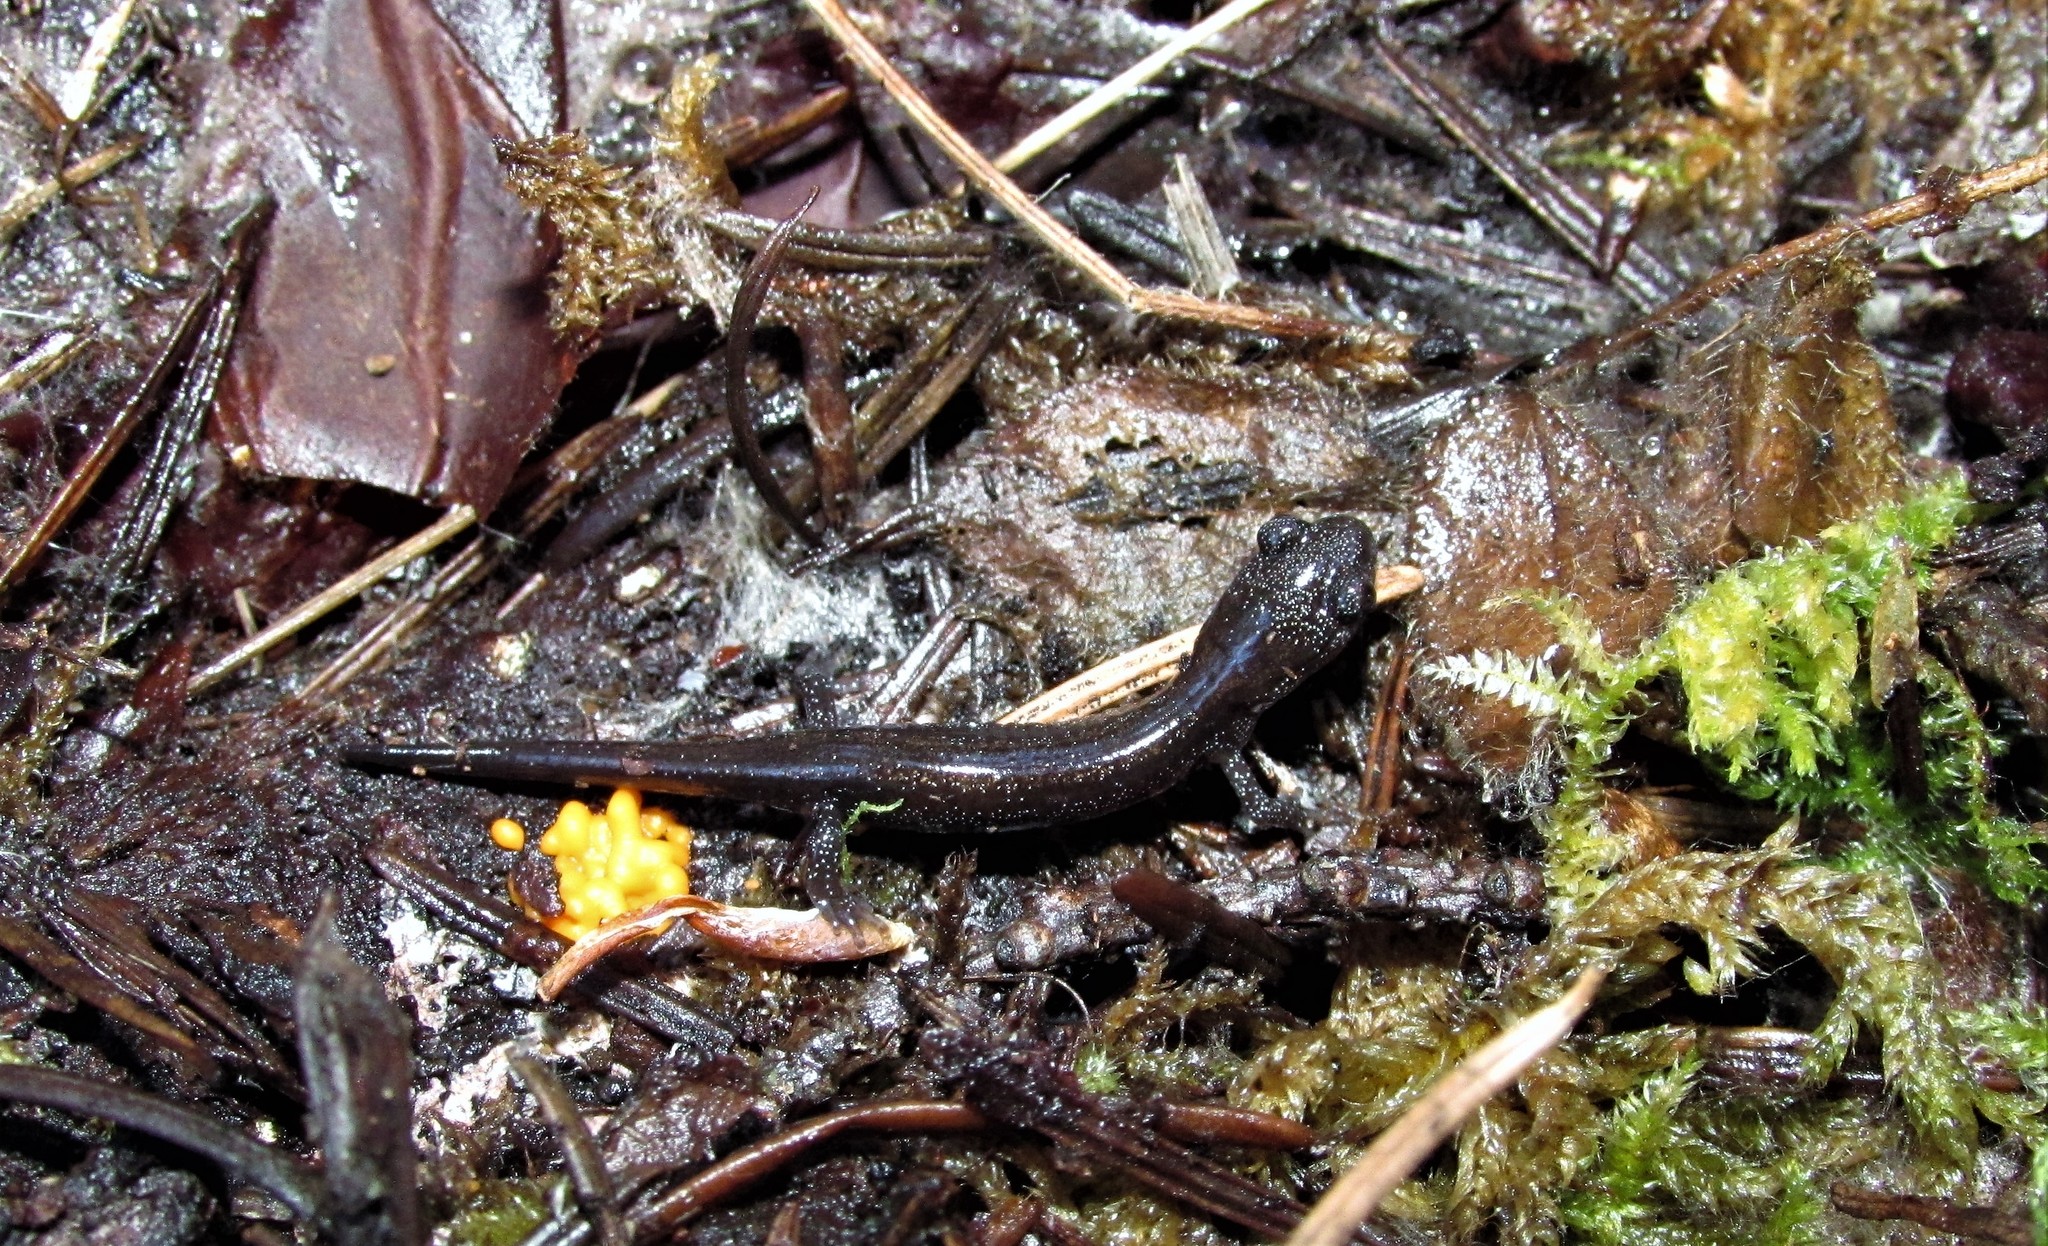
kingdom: Animalia
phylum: Chordata
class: Amphibia
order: Caudata
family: Plethodontidae
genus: Plethodon
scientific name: Plethodon stormi
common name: Siskiyou mountains salamander
